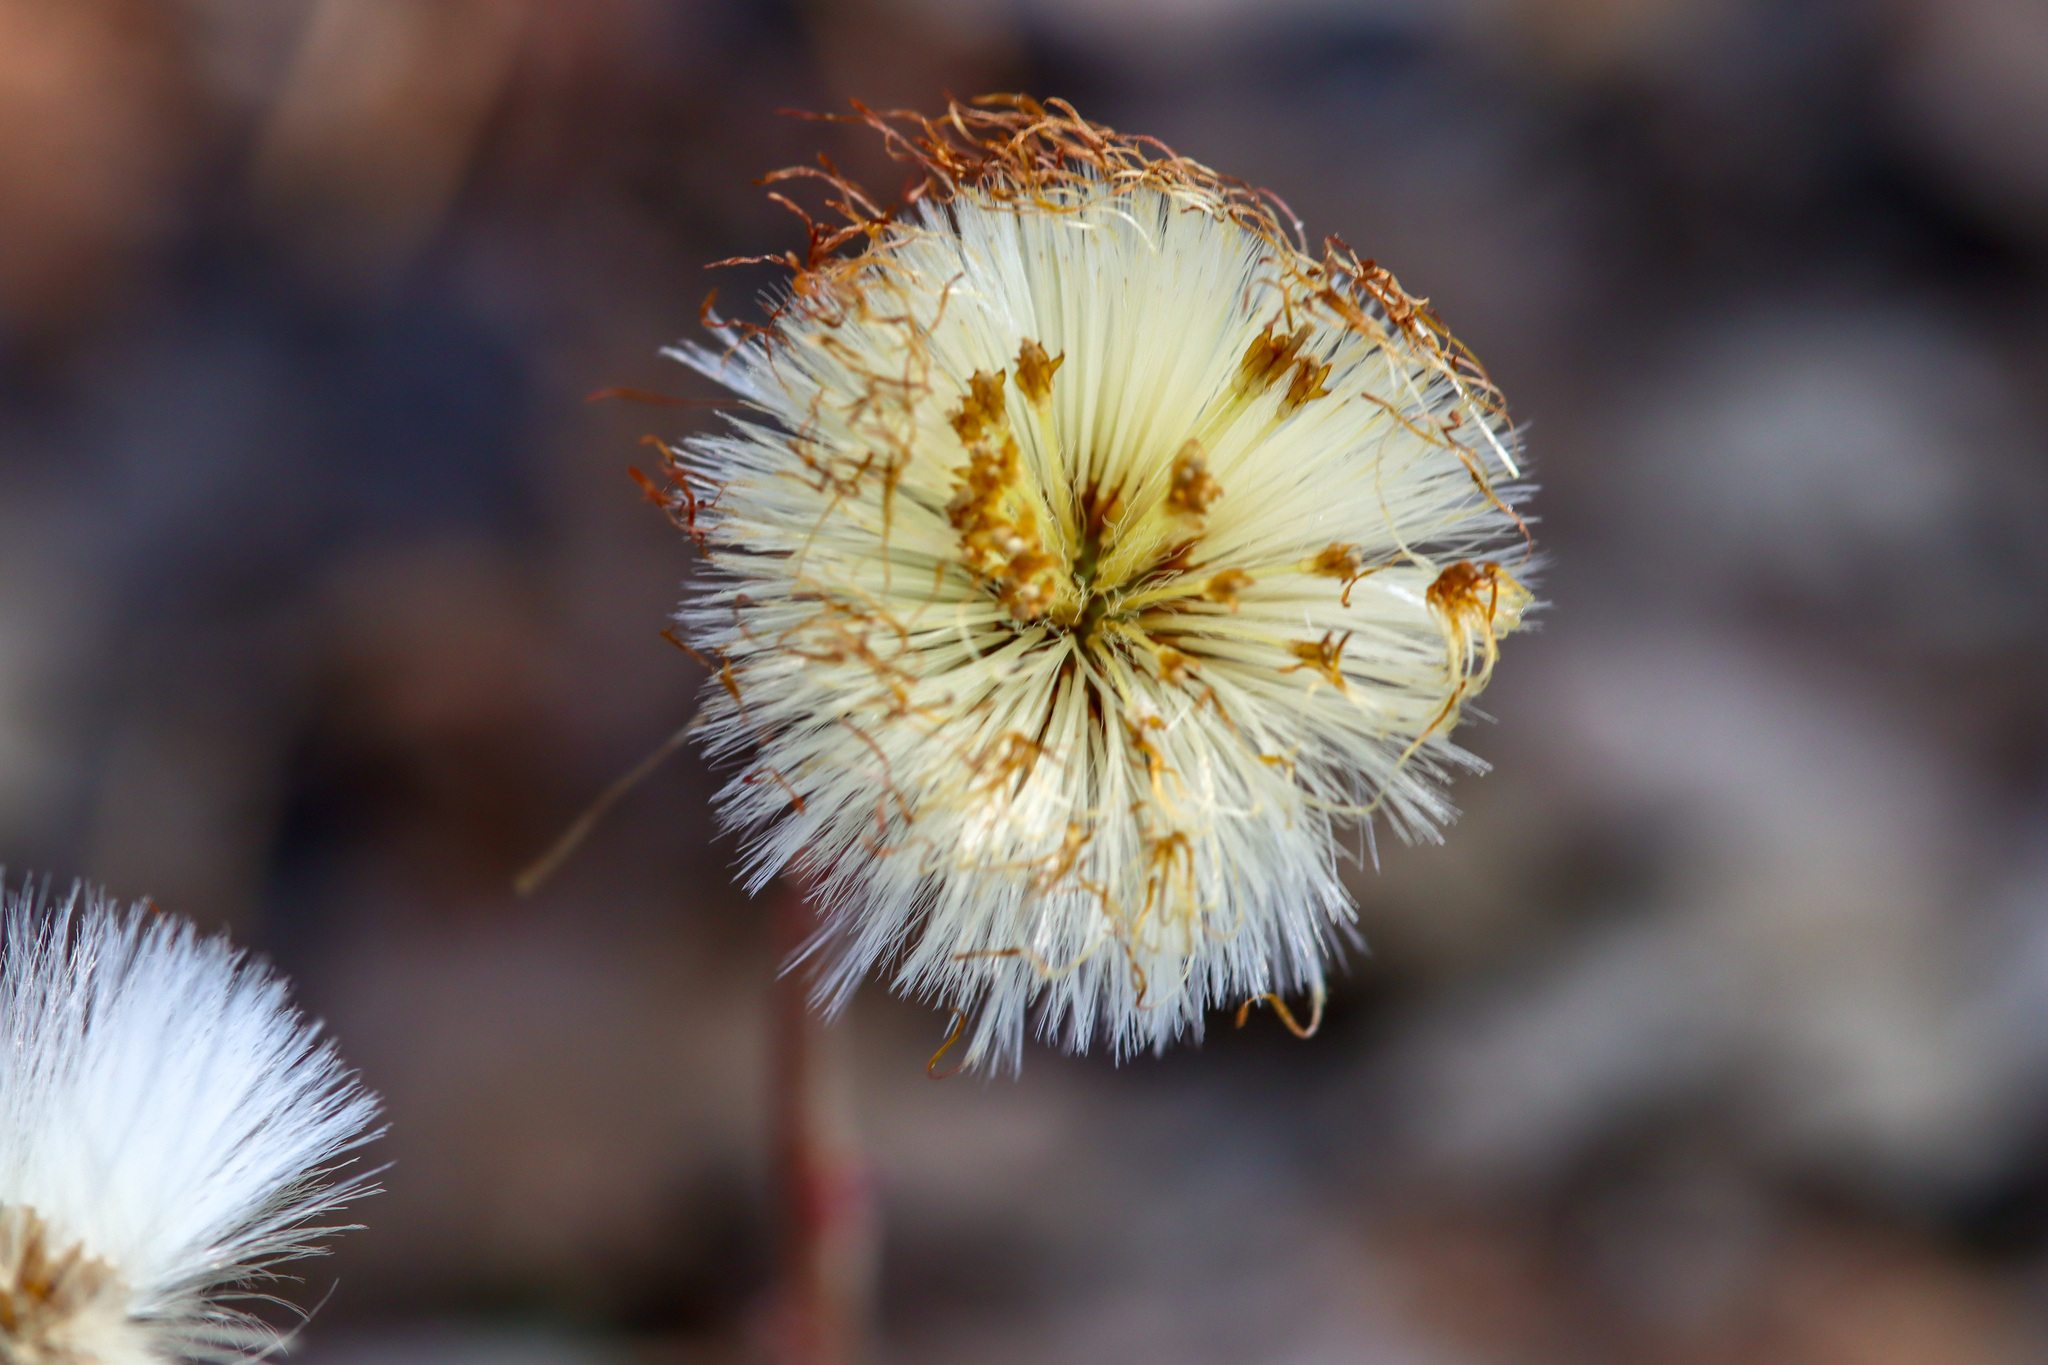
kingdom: Plantae
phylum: Tracheophyta
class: Magnoliopsida
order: Asterales
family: Asteraceae
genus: Tussilago
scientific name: Tussilago farfara
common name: Coltsfoot
